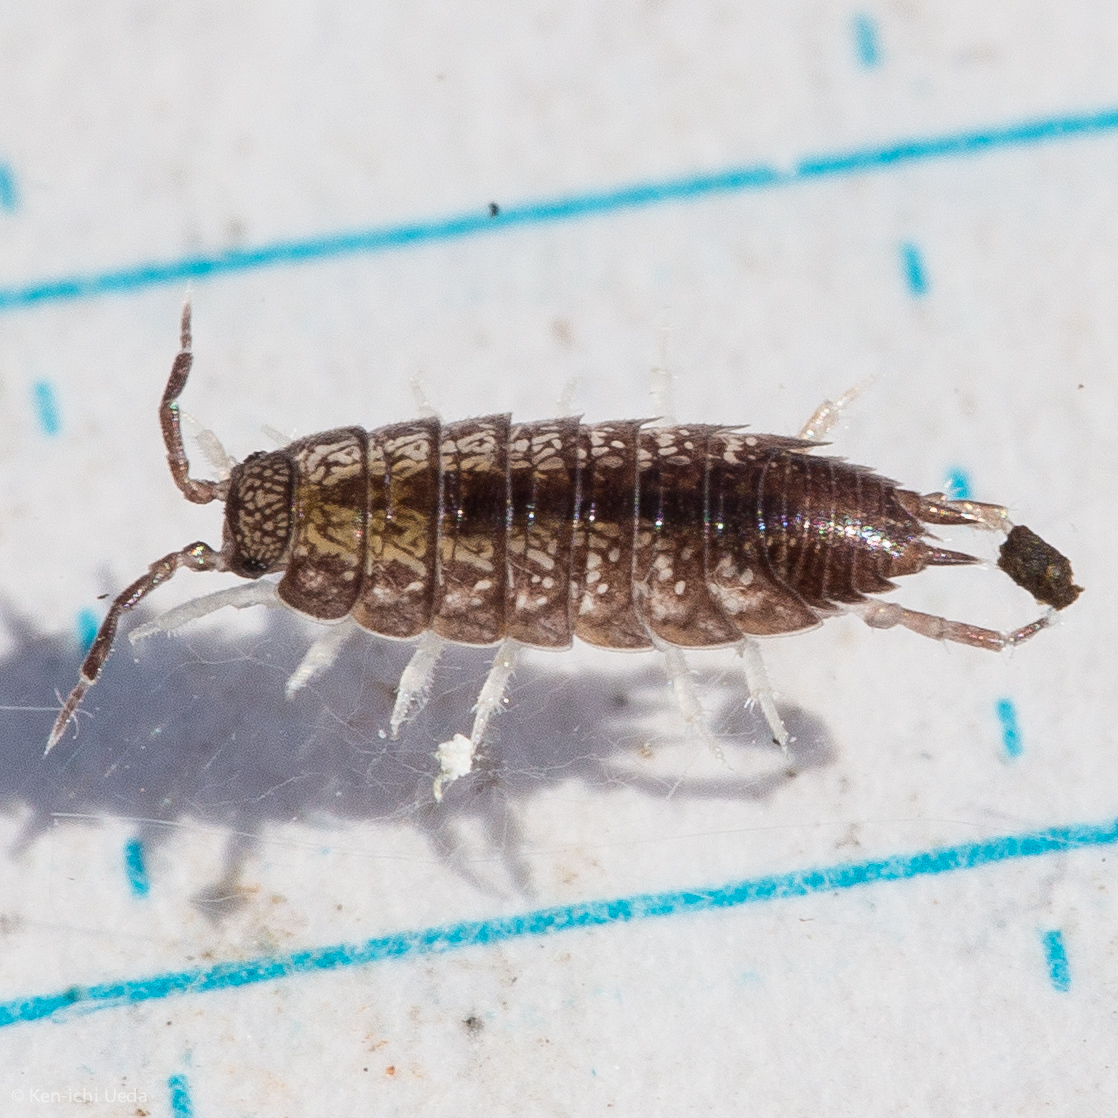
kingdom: Animalia
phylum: Arthropoda
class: Malacostraca
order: Isopoda
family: Halophilosciidae
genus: Littorophiloscia
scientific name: Littorophiloscia richardsonae
